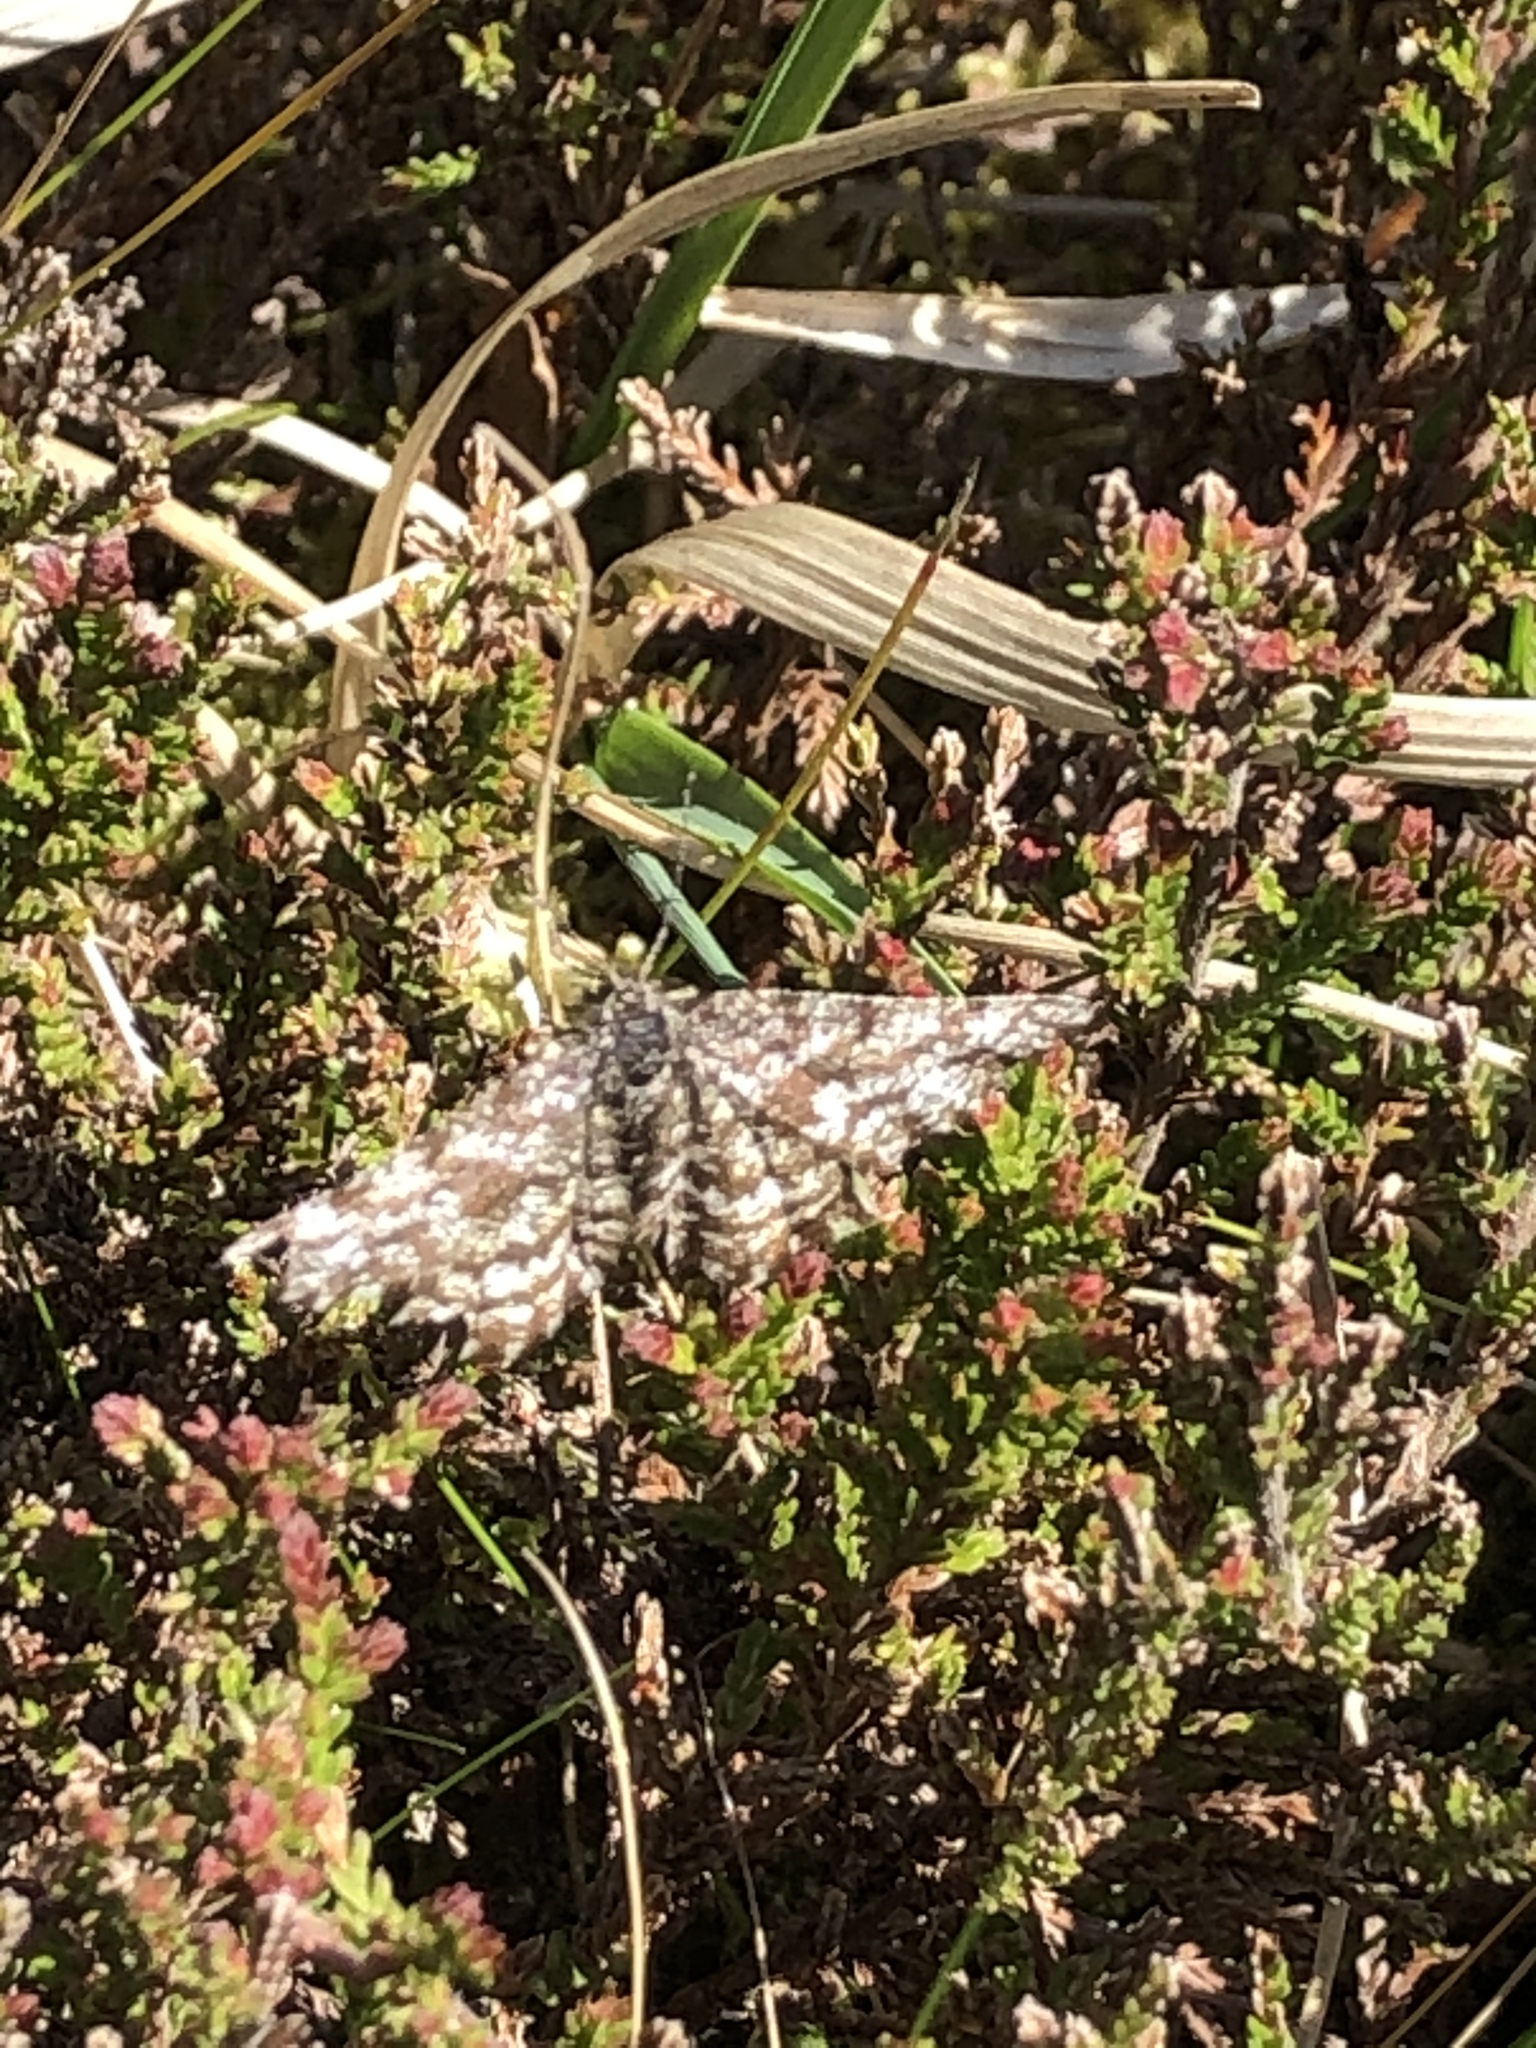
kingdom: Animalia
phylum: Arthropoda
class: Insecta
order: Lepidoptera
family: Geometridae
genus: Ematurga
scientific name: Ematurga atomaria
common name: Common heath
